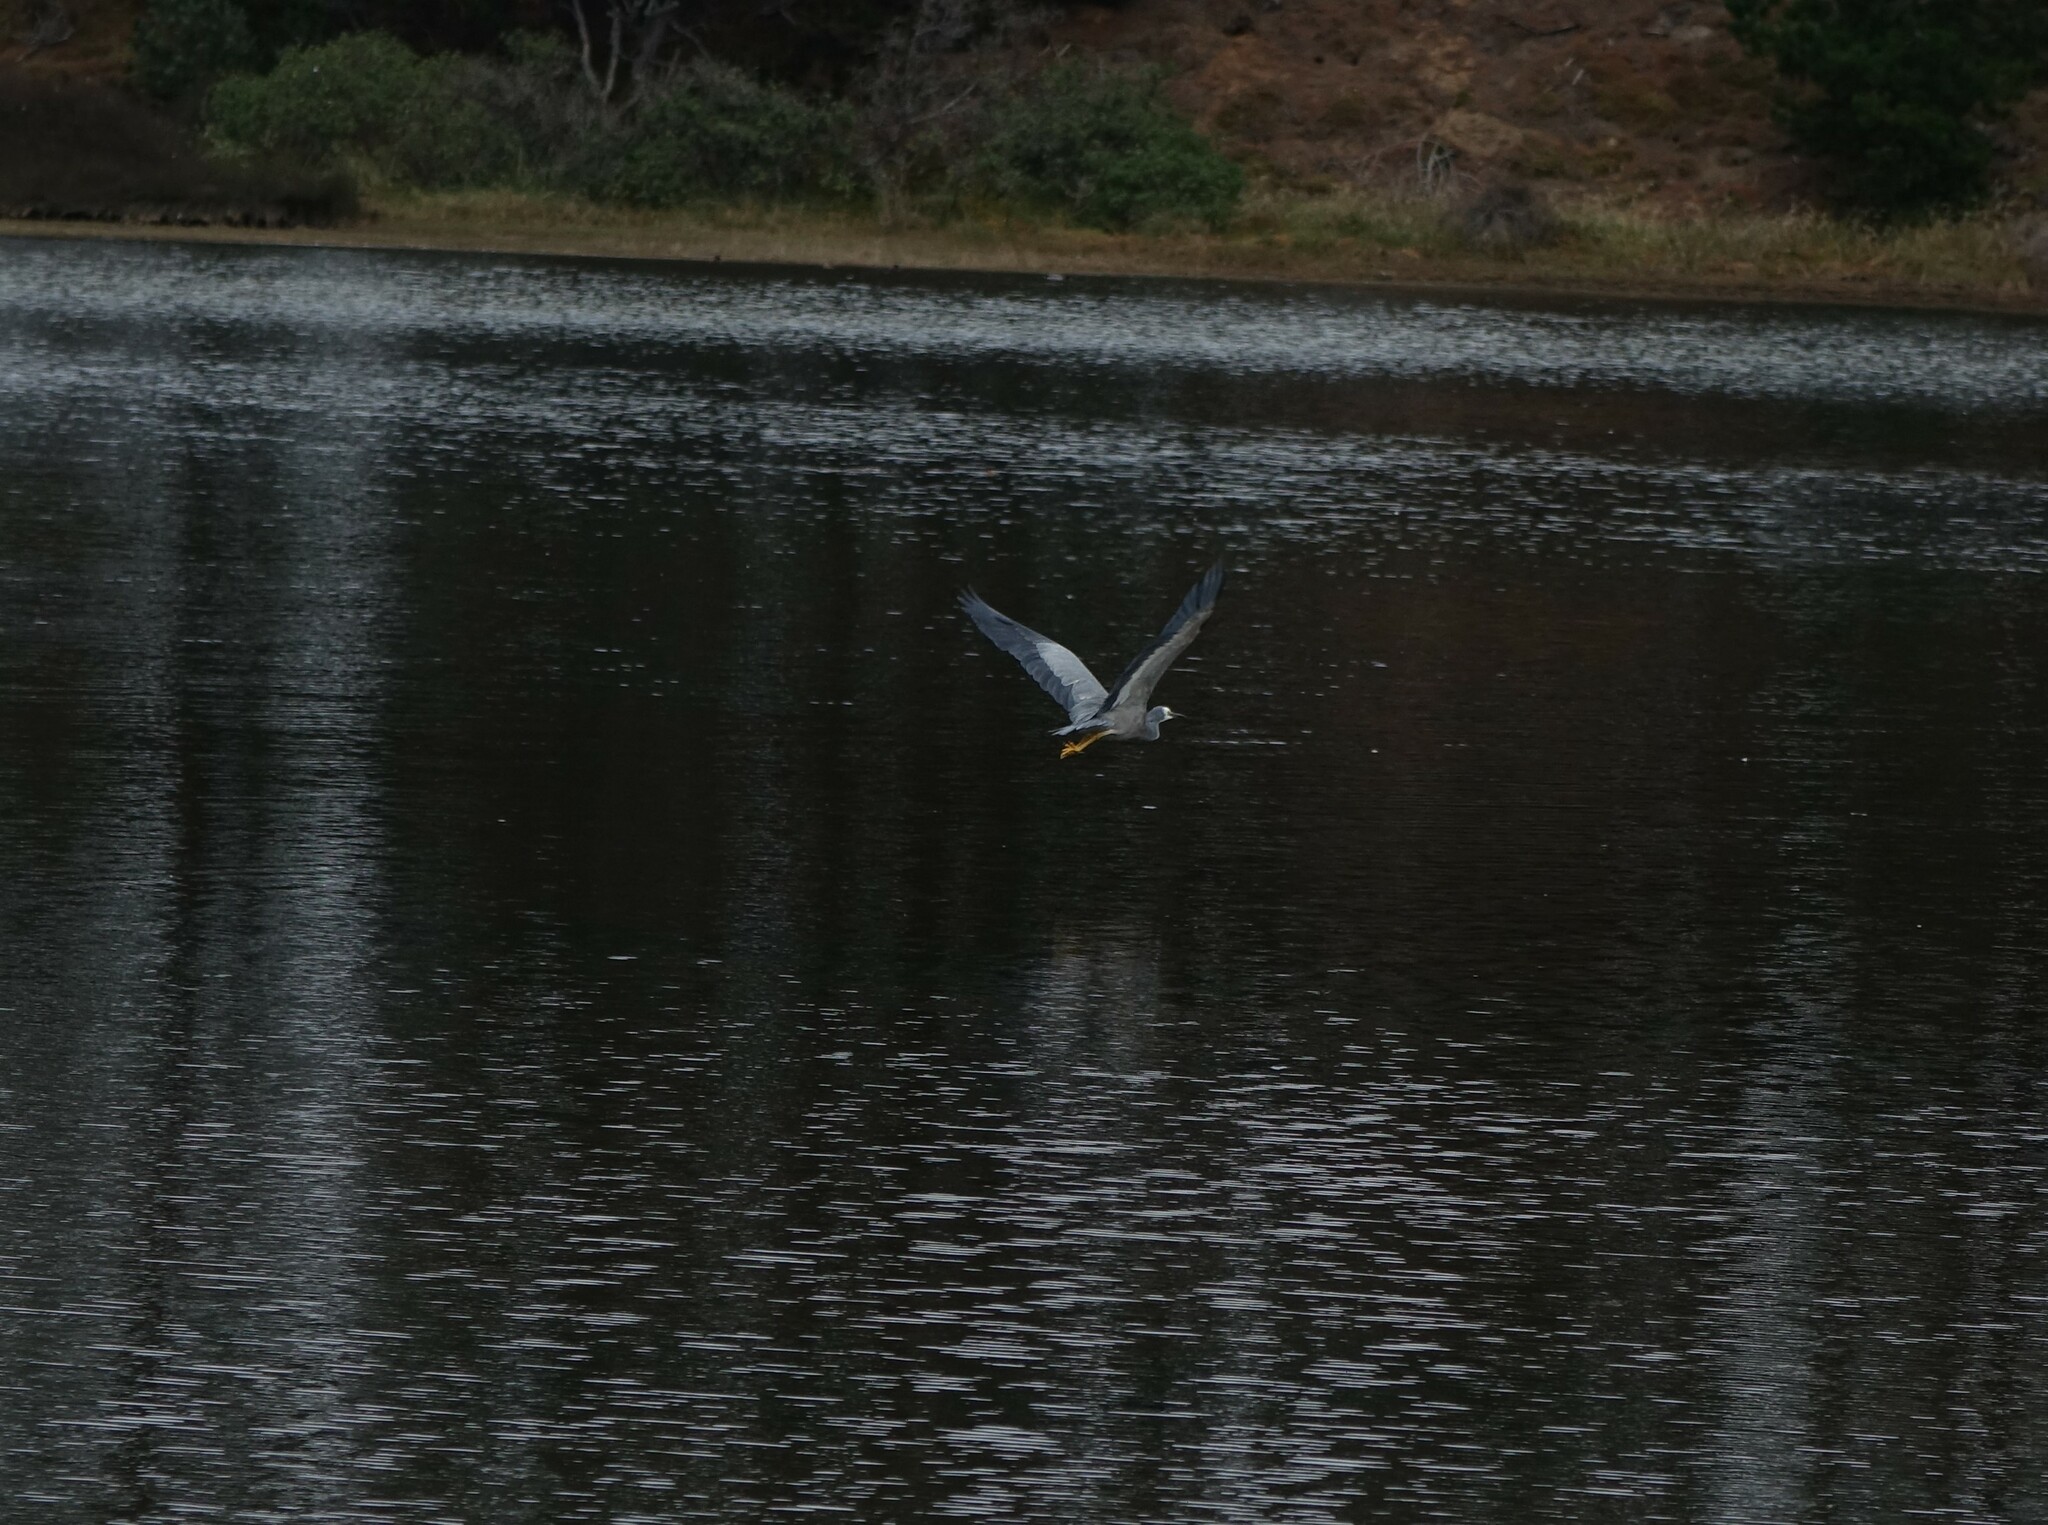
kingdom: Animalia
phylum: Chordata
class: Aves
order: Pelecaniformes
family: Ardeidae
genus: Egretta
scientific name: Egretta novaehollandiae
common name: White-faced heron
